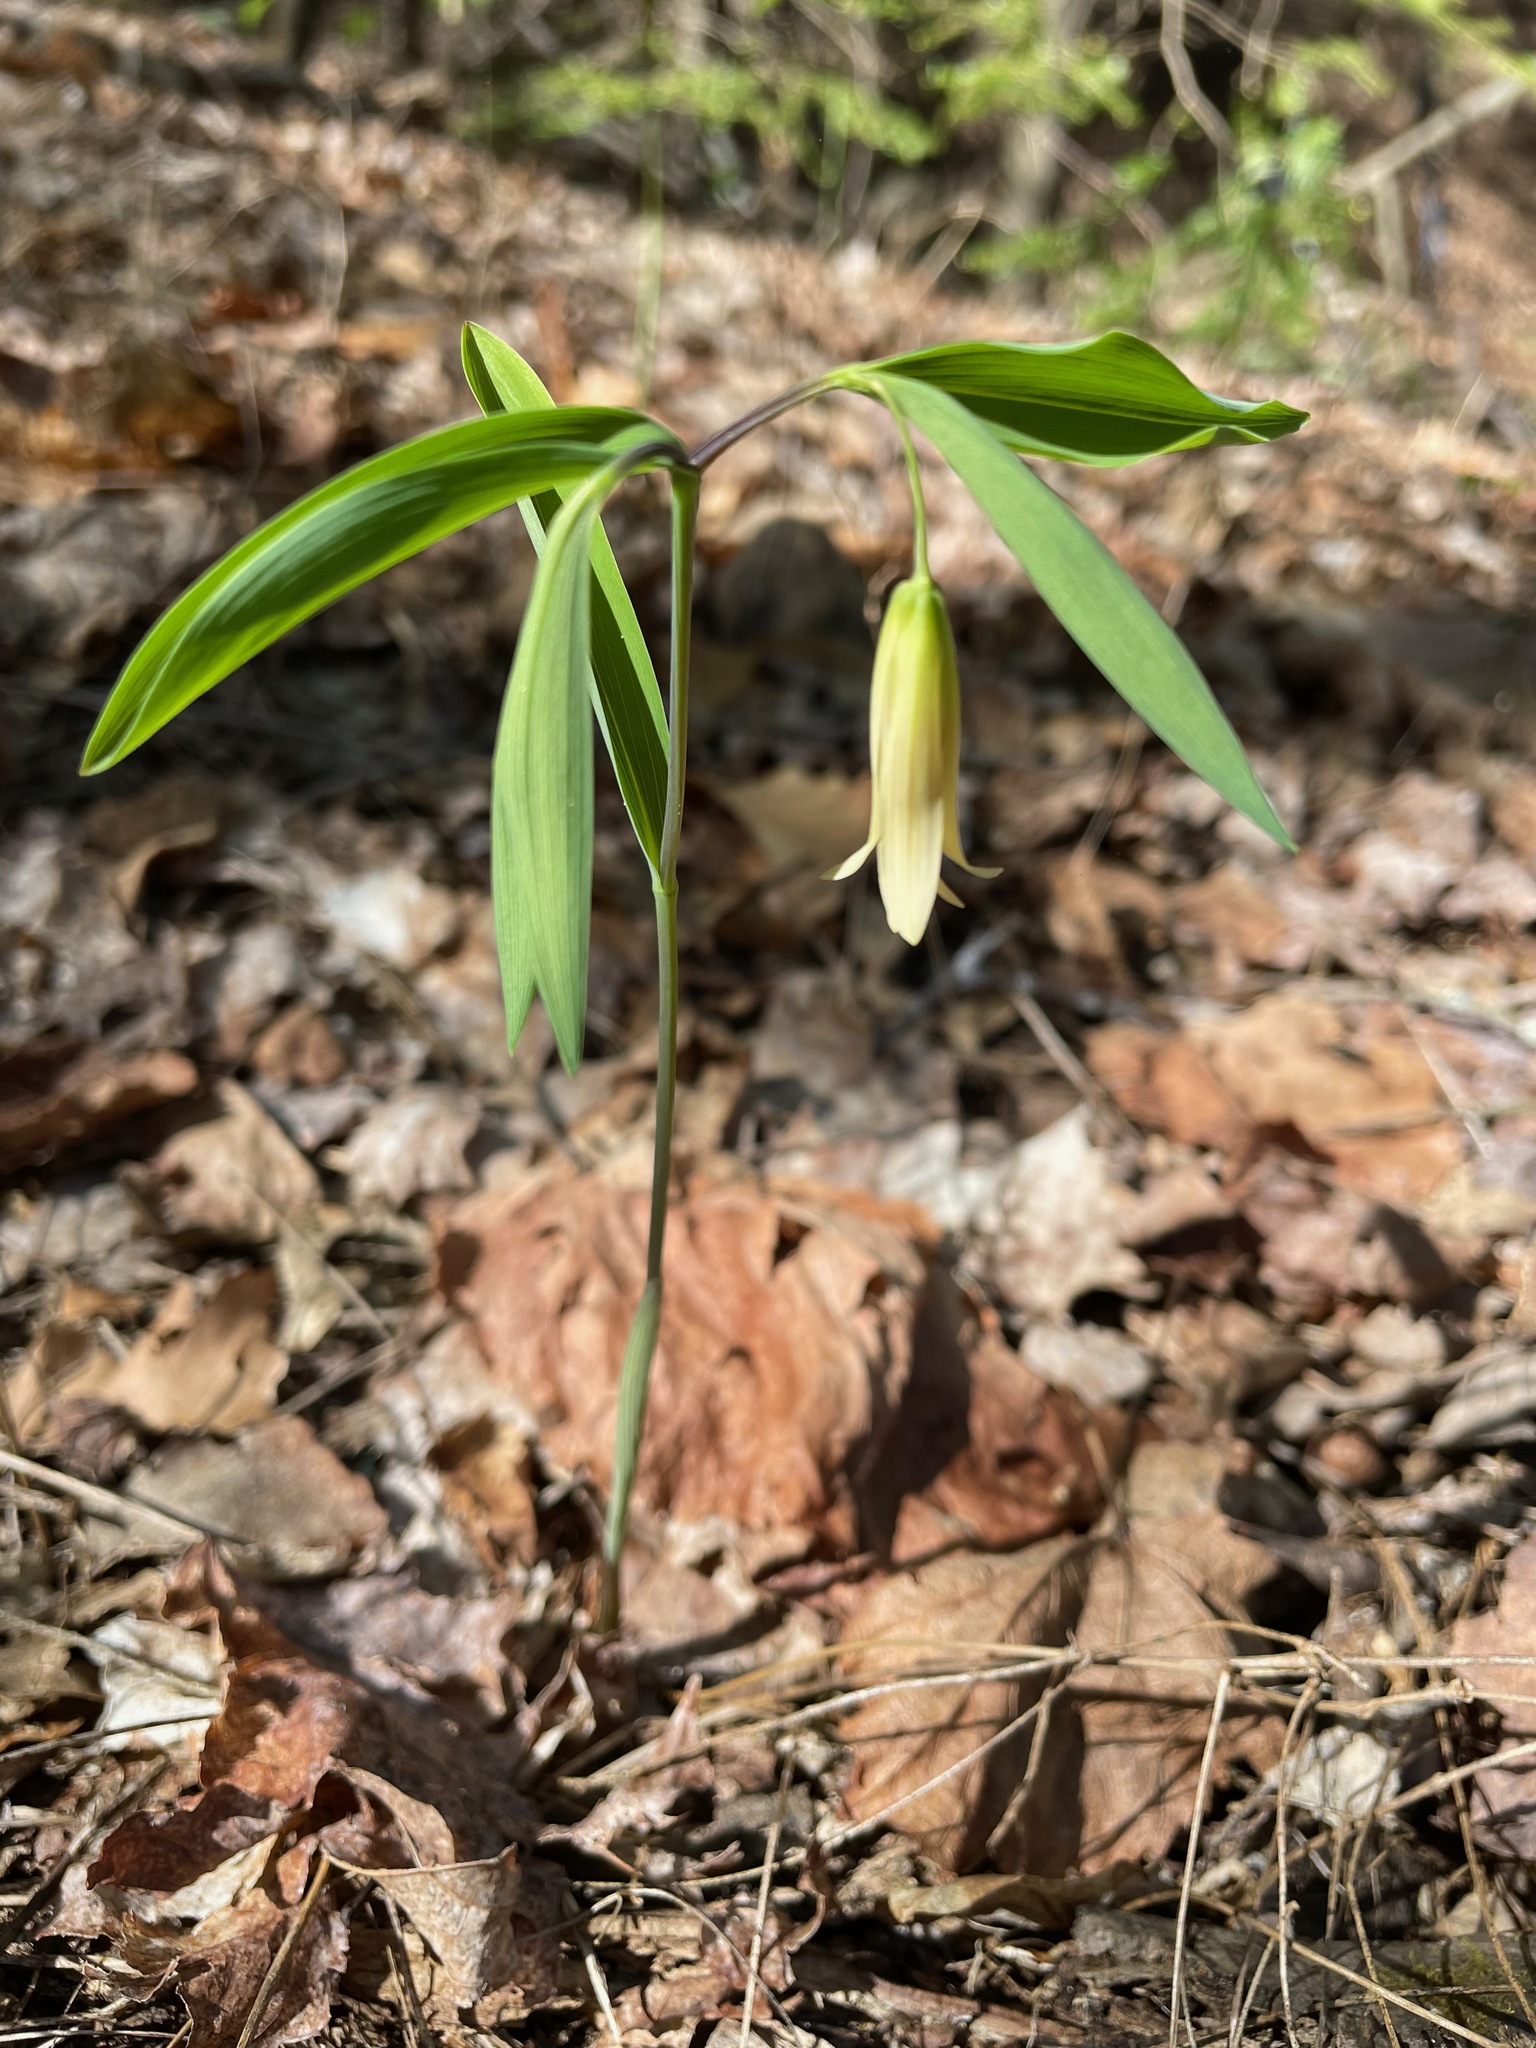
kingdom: Plantae
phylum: Tracheophyta
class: Liliopsida
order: Liliales
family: Colchicaceae
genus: Uvularia
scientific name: Uvularia sessilifolia
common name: Straw-lily
